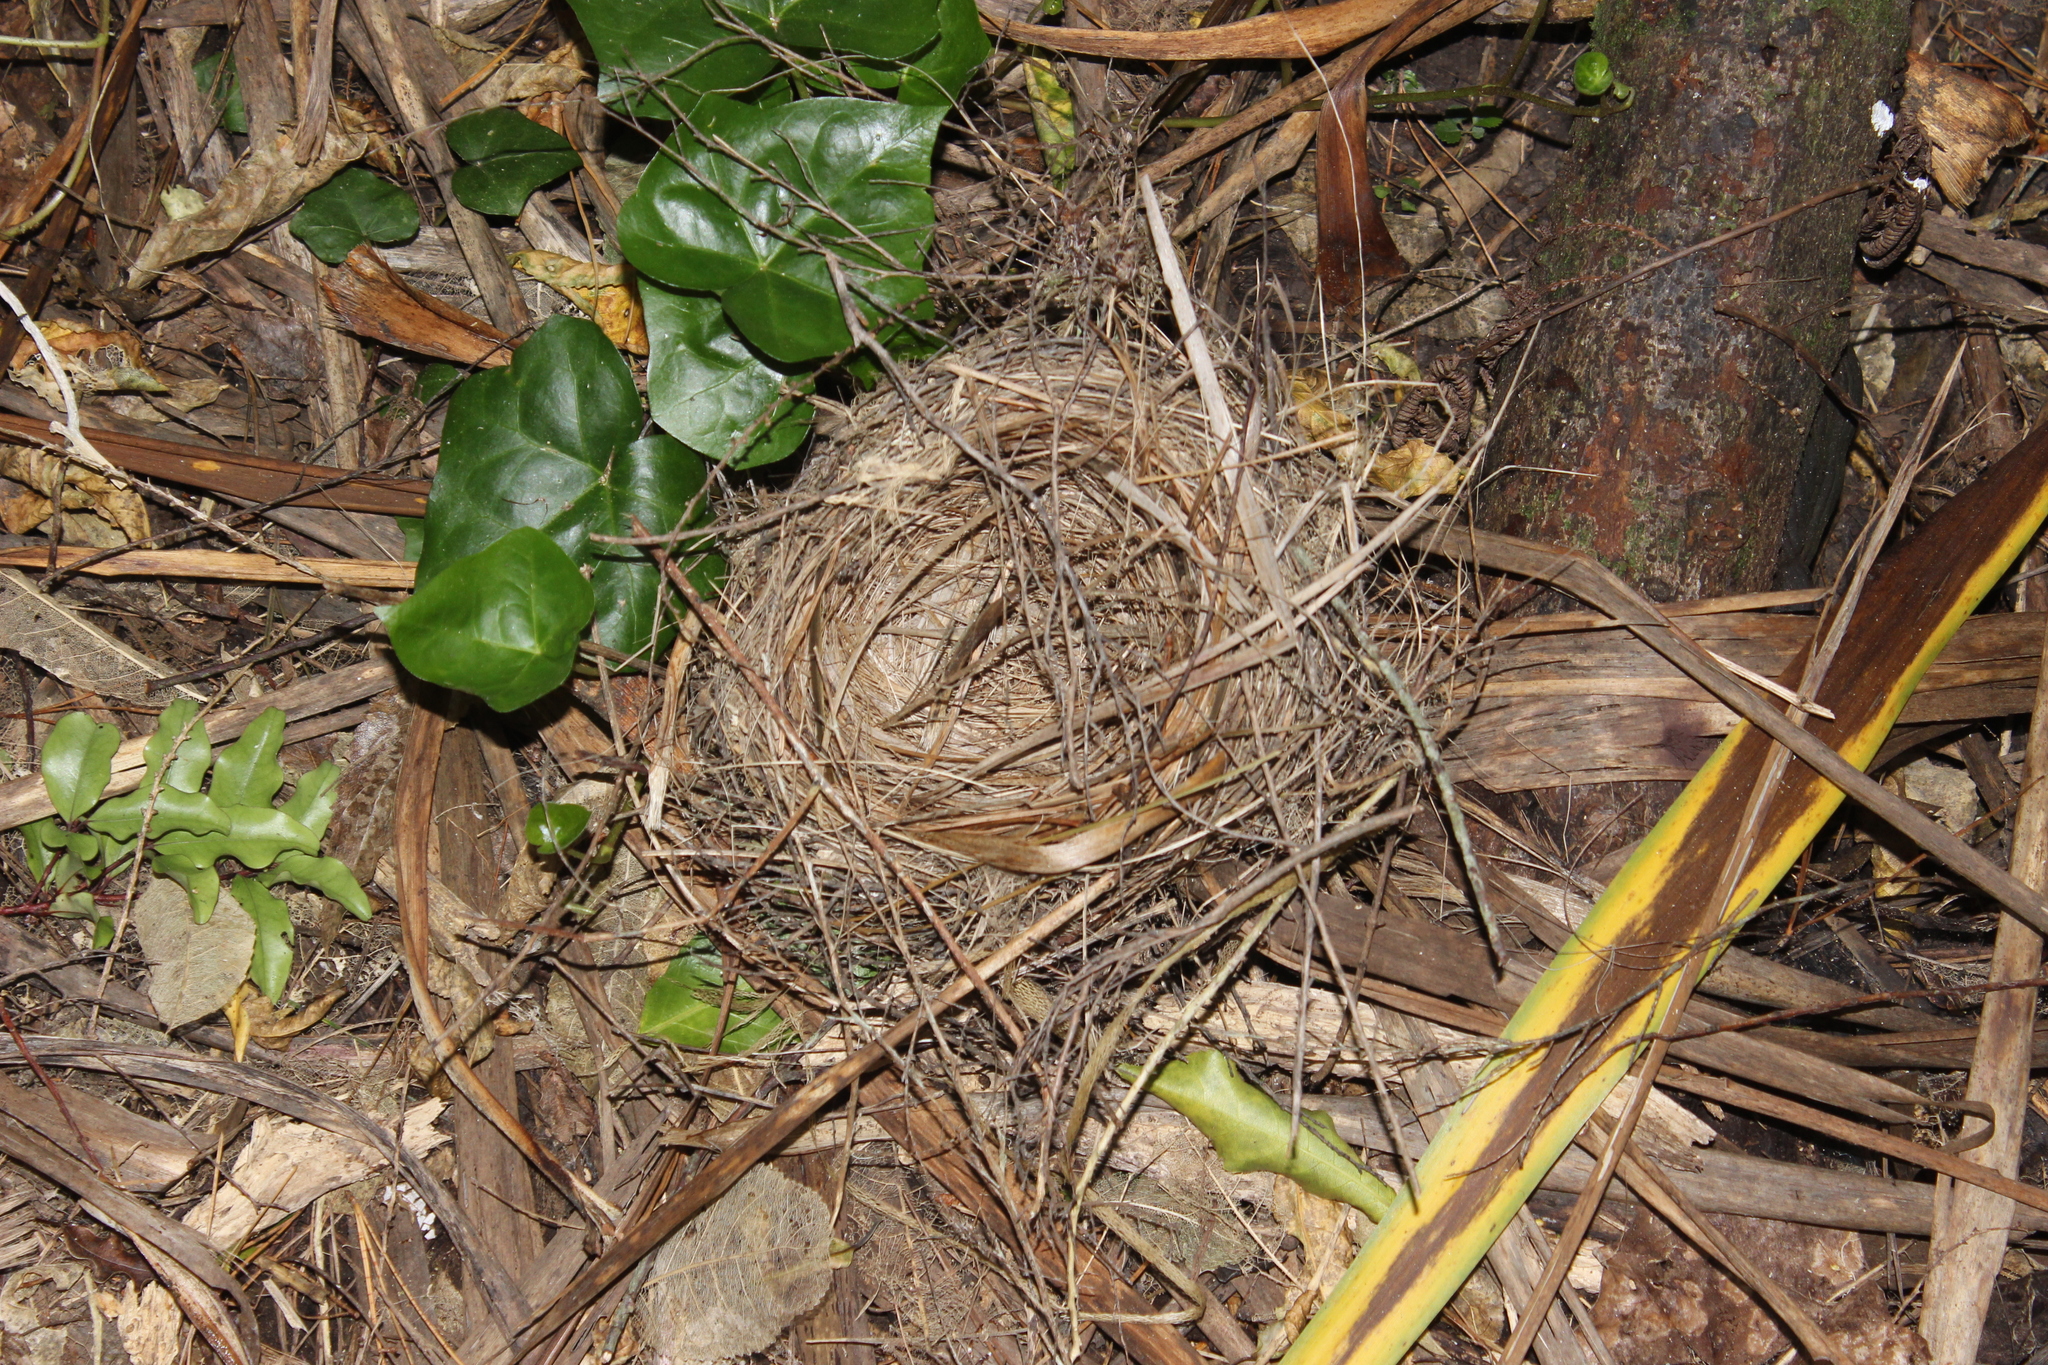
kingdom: Animalia
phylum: Chordata
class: Aves
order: Passeriformes
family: Meliphagidae
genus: Prosthemadera
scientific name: Prosthemadera novaeseelandiae
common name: Tui
